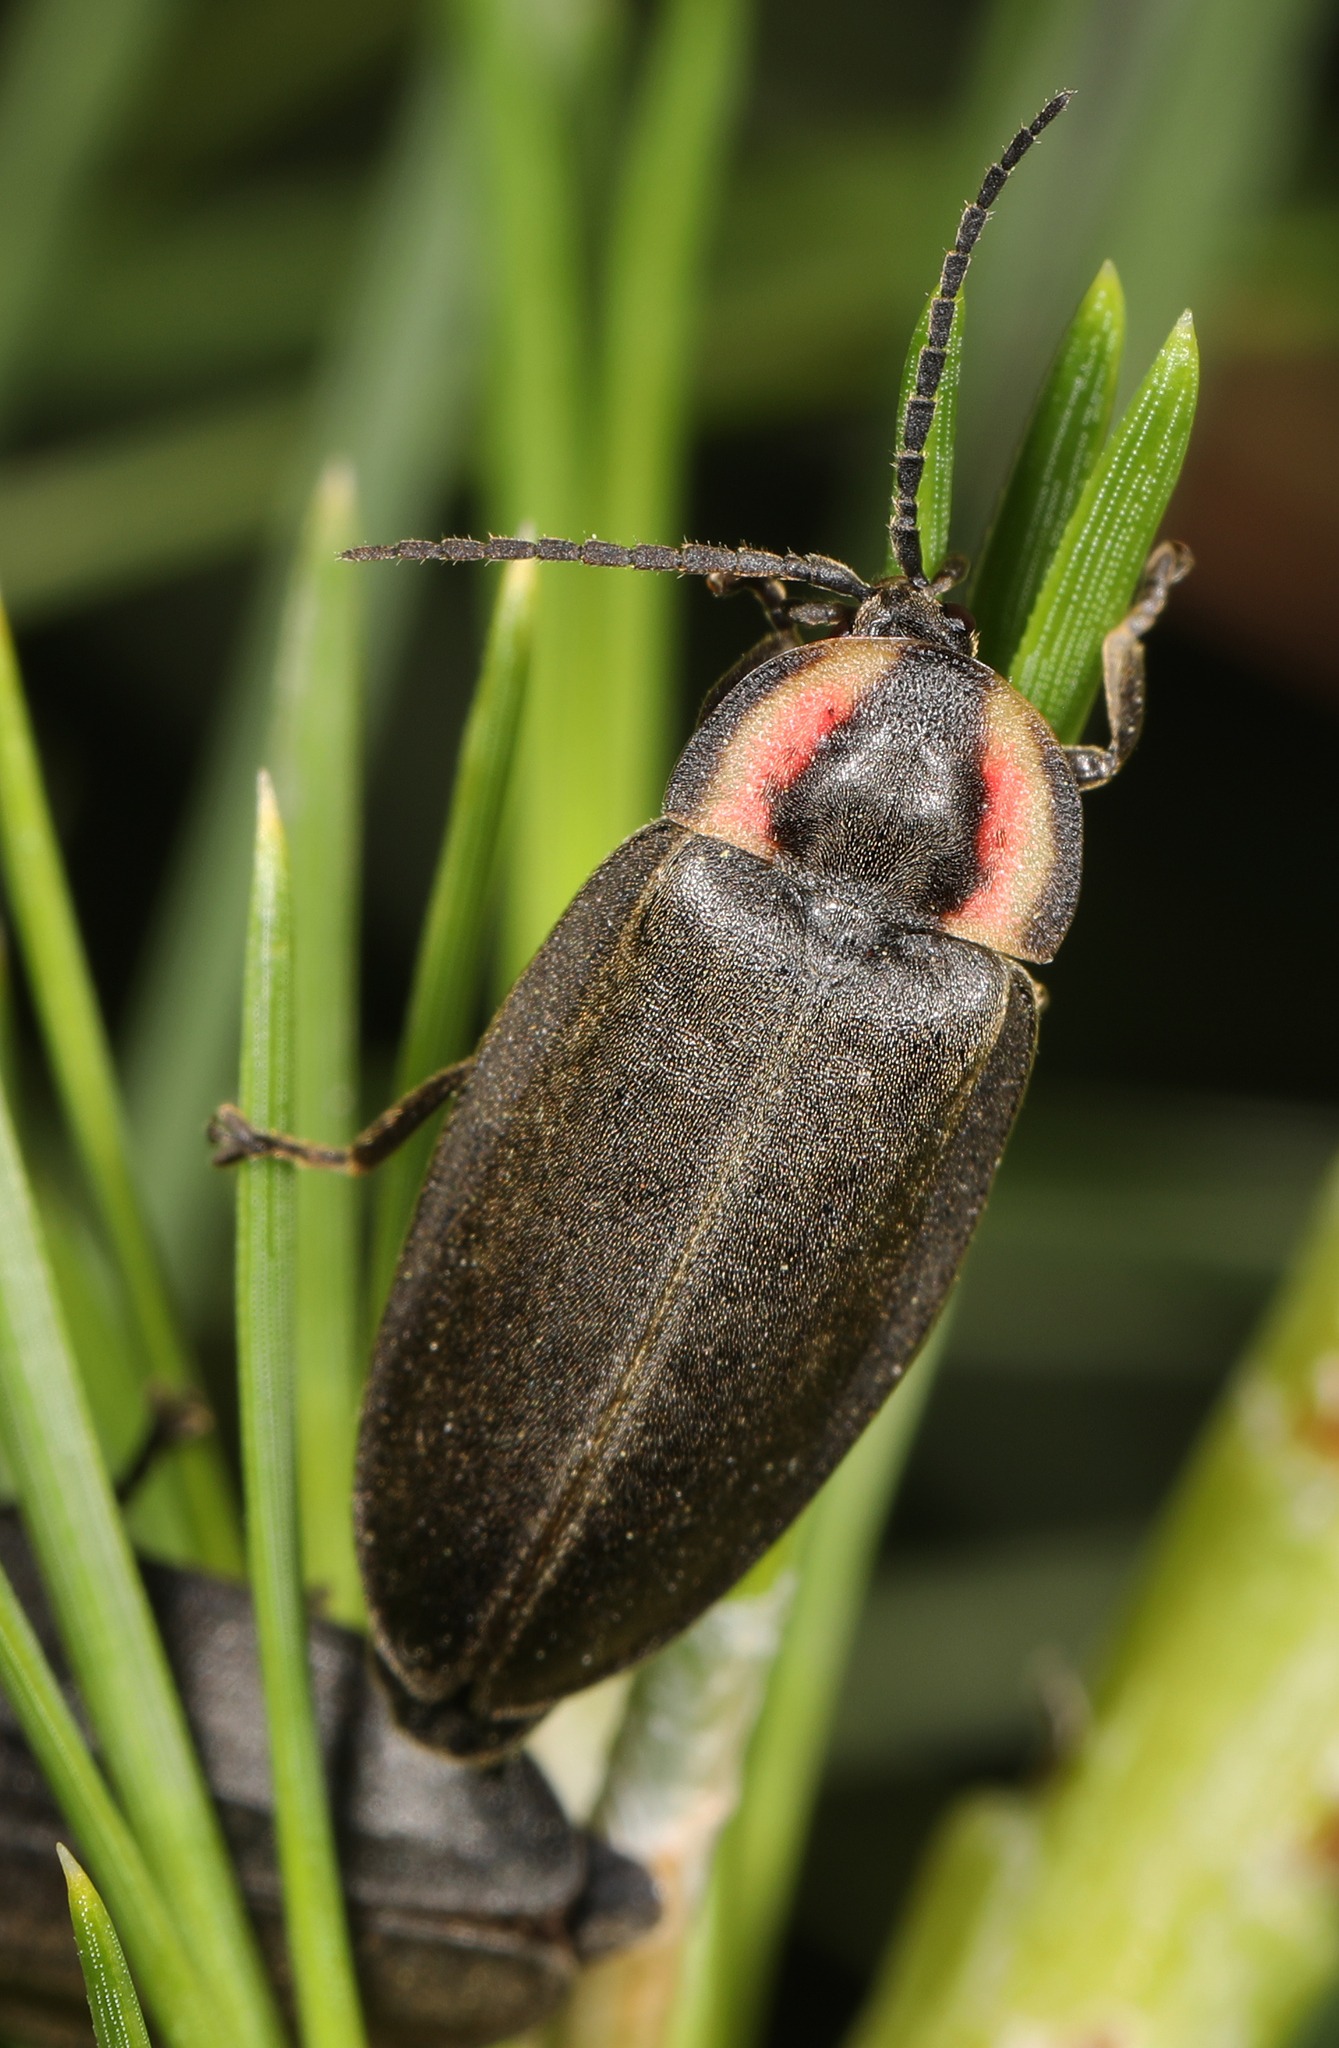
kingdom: Animalia
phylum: Arthropoda
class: Insecta
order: Coleoptera
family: Lampyridae
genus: Photinus
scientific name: Photinus corrusca
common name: Winter firefly
